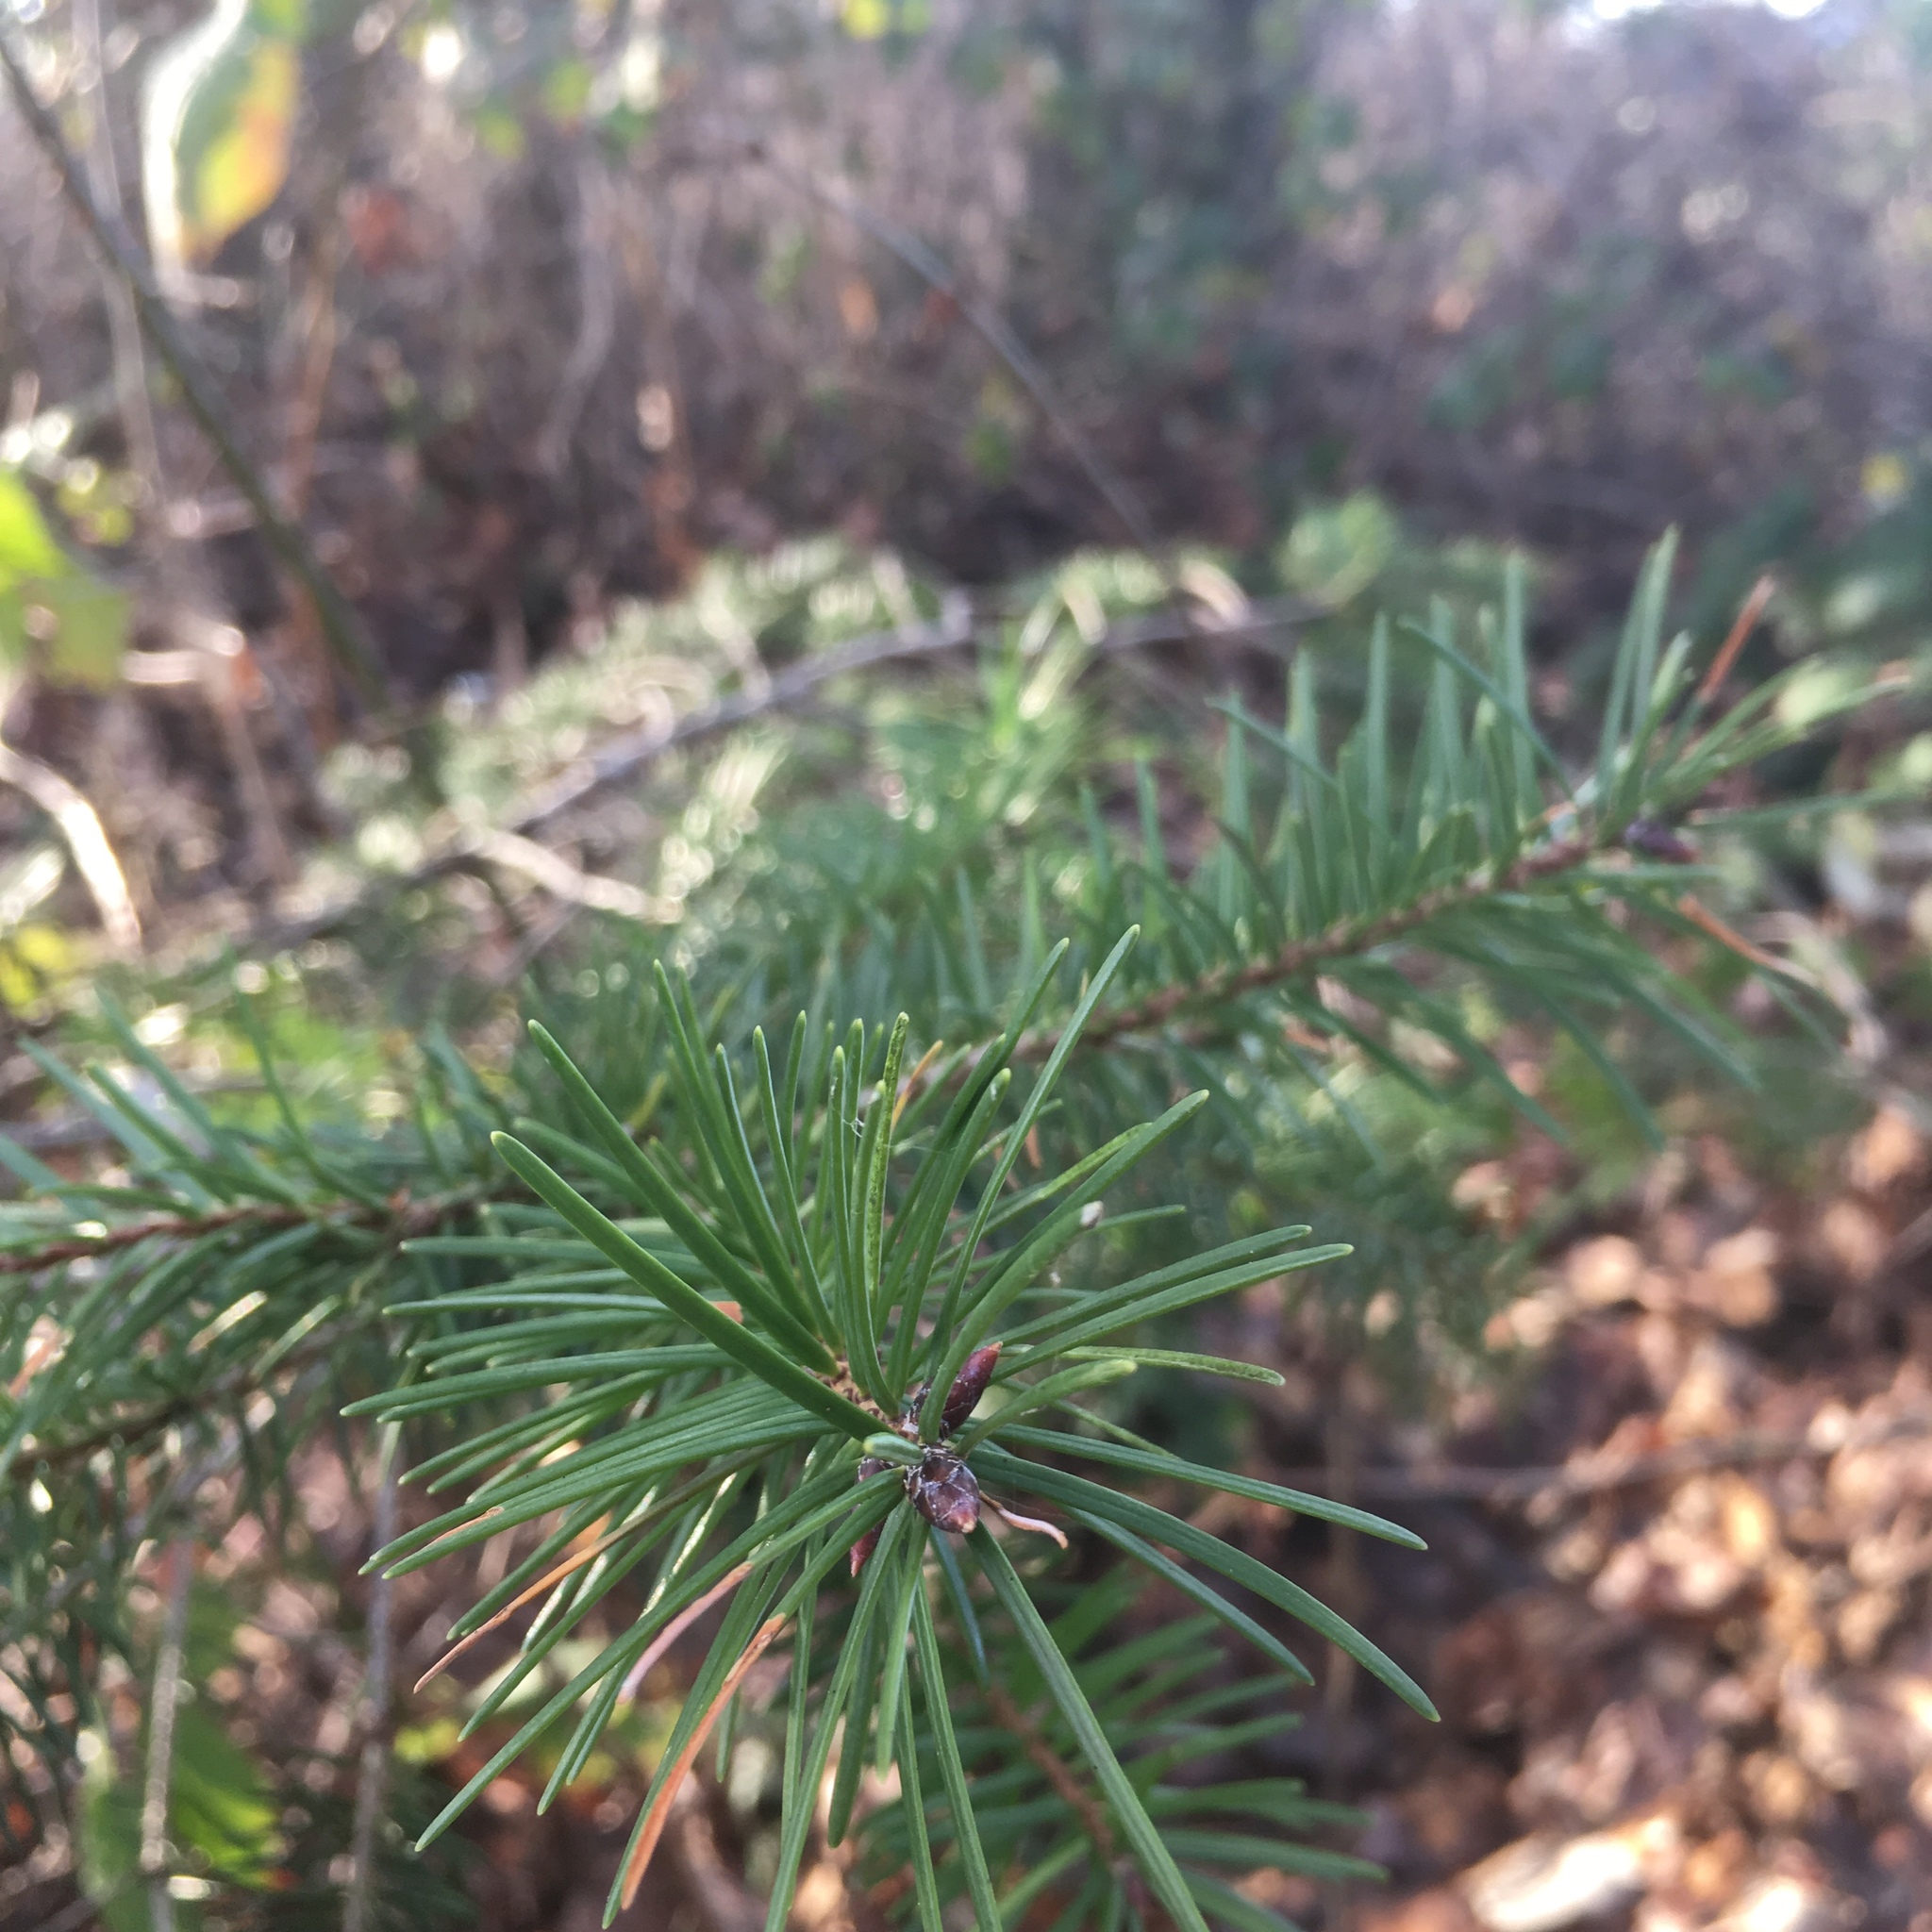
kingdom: Plantae
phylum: Tracheophyta
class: Pinopsida
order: Pinales
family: Pinaceae
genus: Pseudotsuga
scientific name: Pseudotsuga menziesii
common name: Douglas fir
